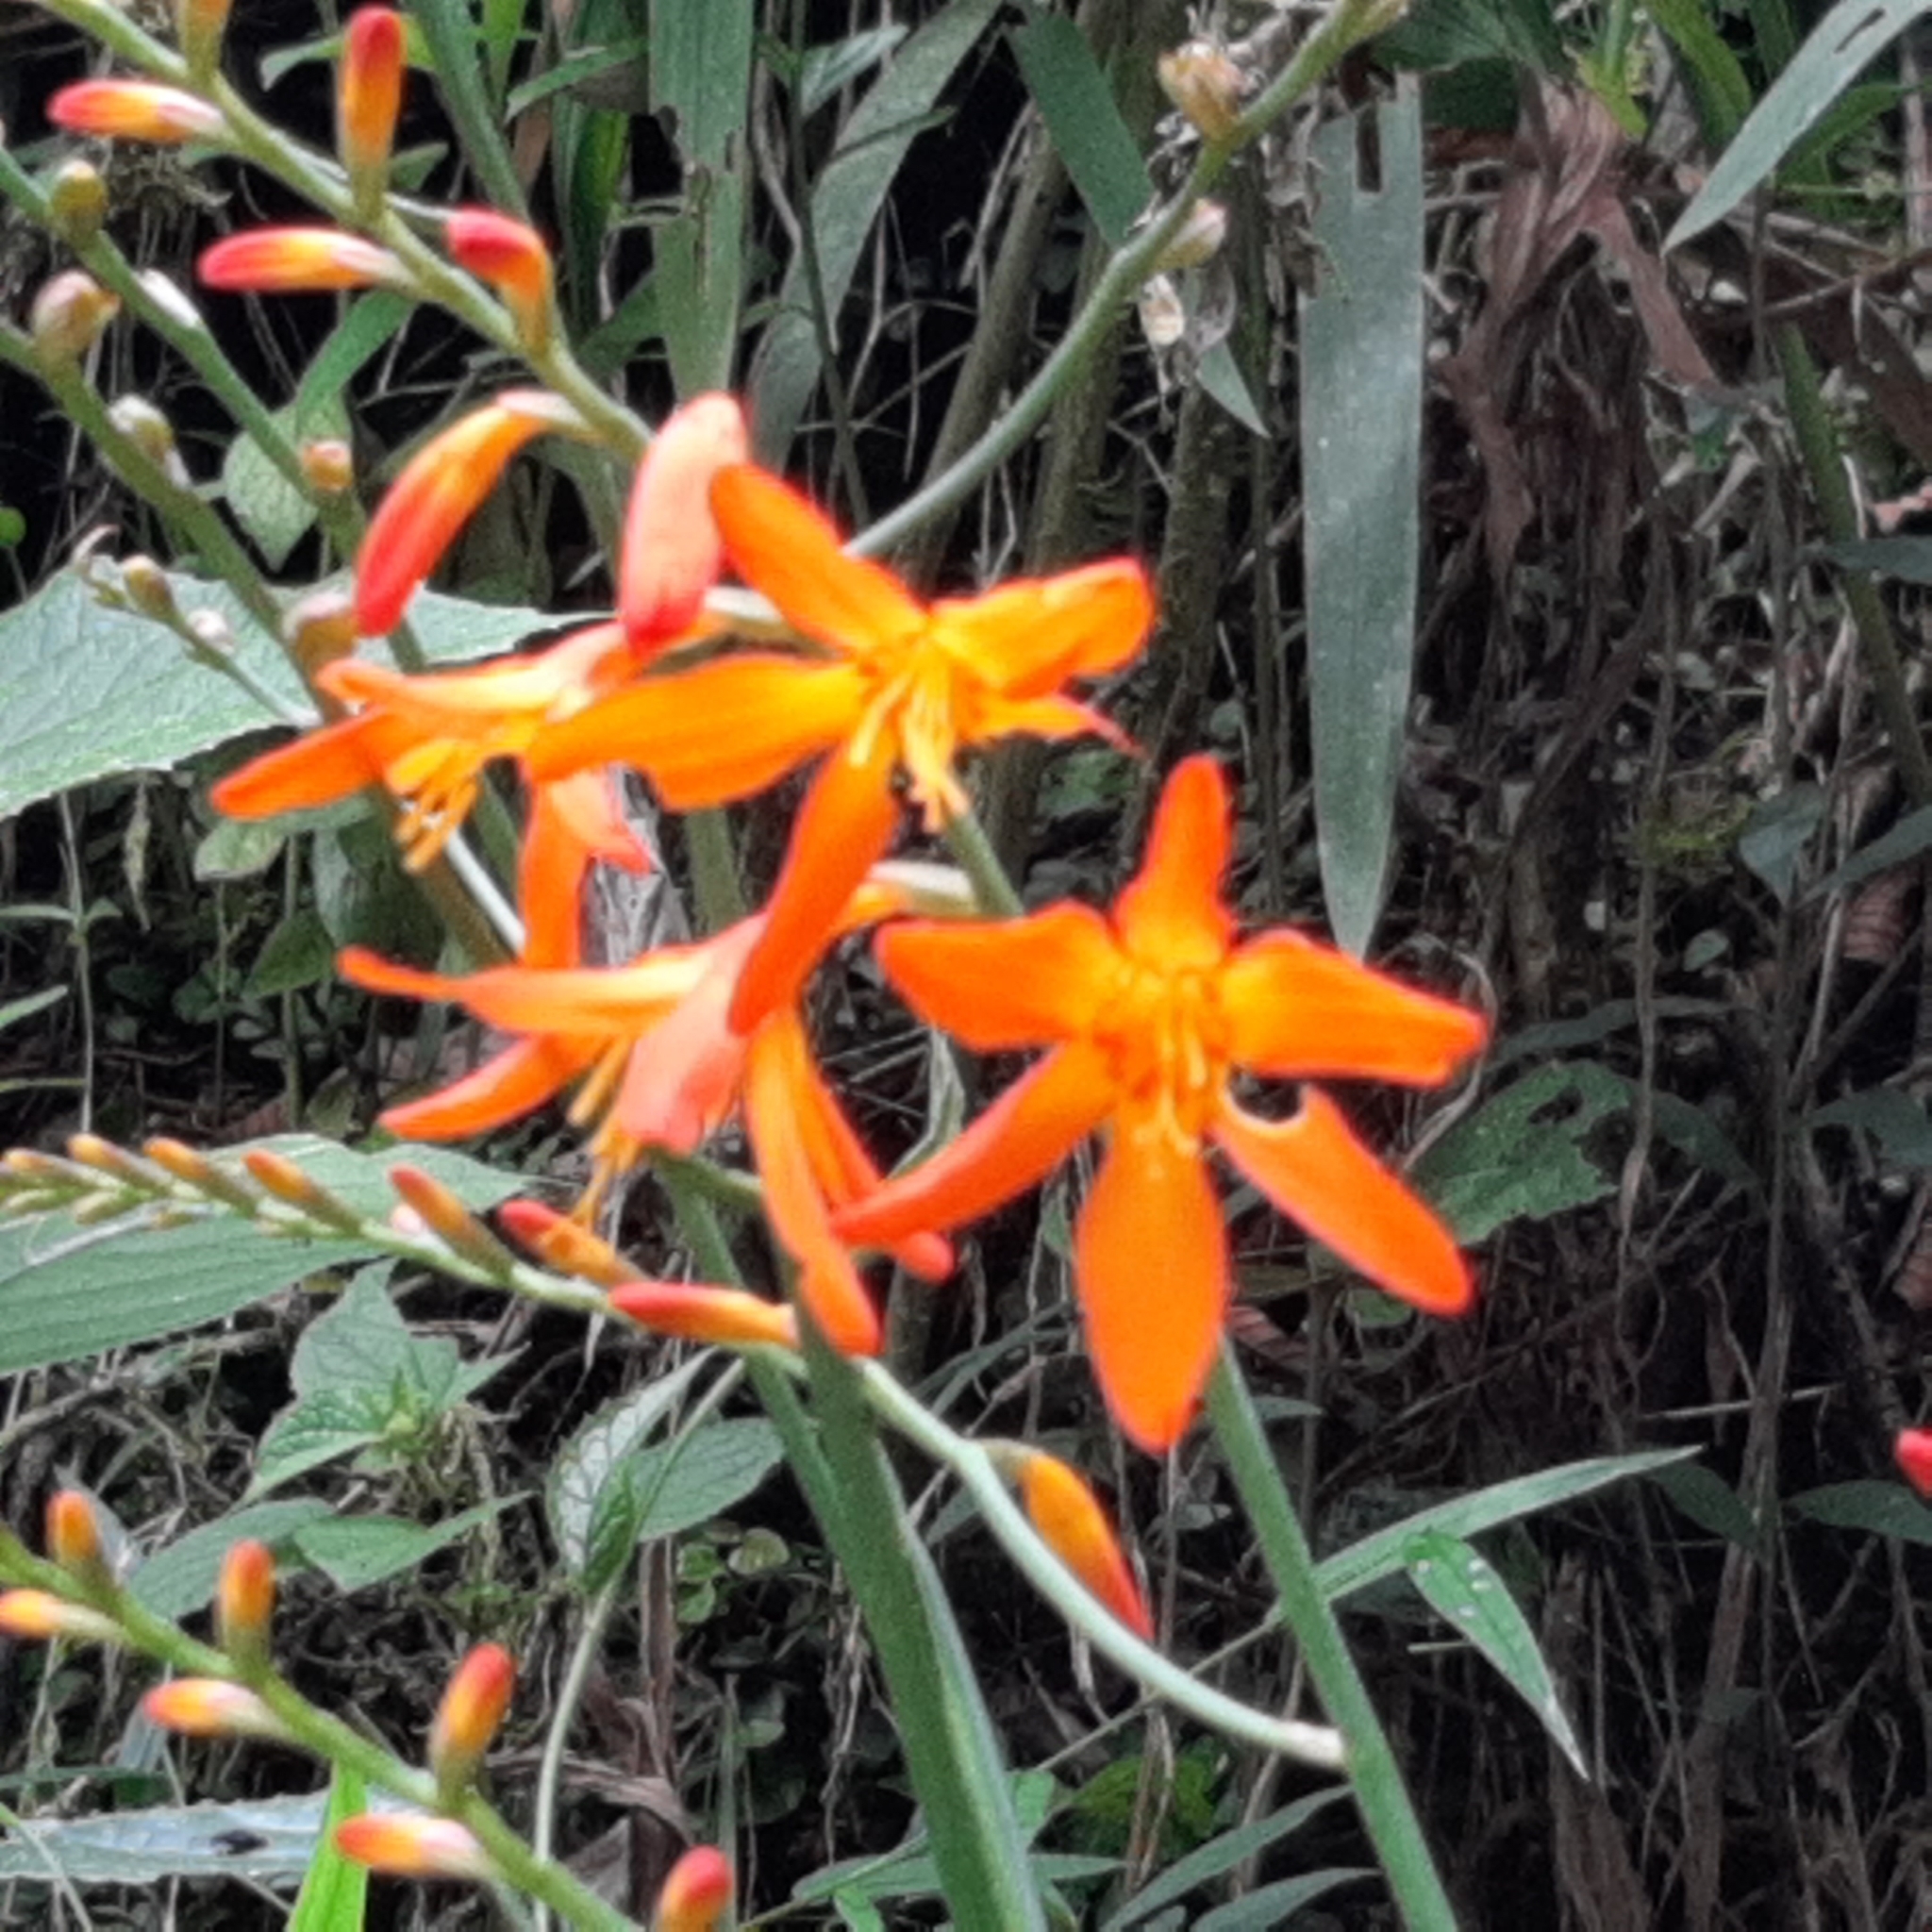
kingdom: Plantae
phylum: Tracheophyta
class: Liliopsida
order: Asparagales
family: Iridaceae
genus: Crocosmia
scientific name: Crocosmia crocosmiiflora
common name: Montbretia
